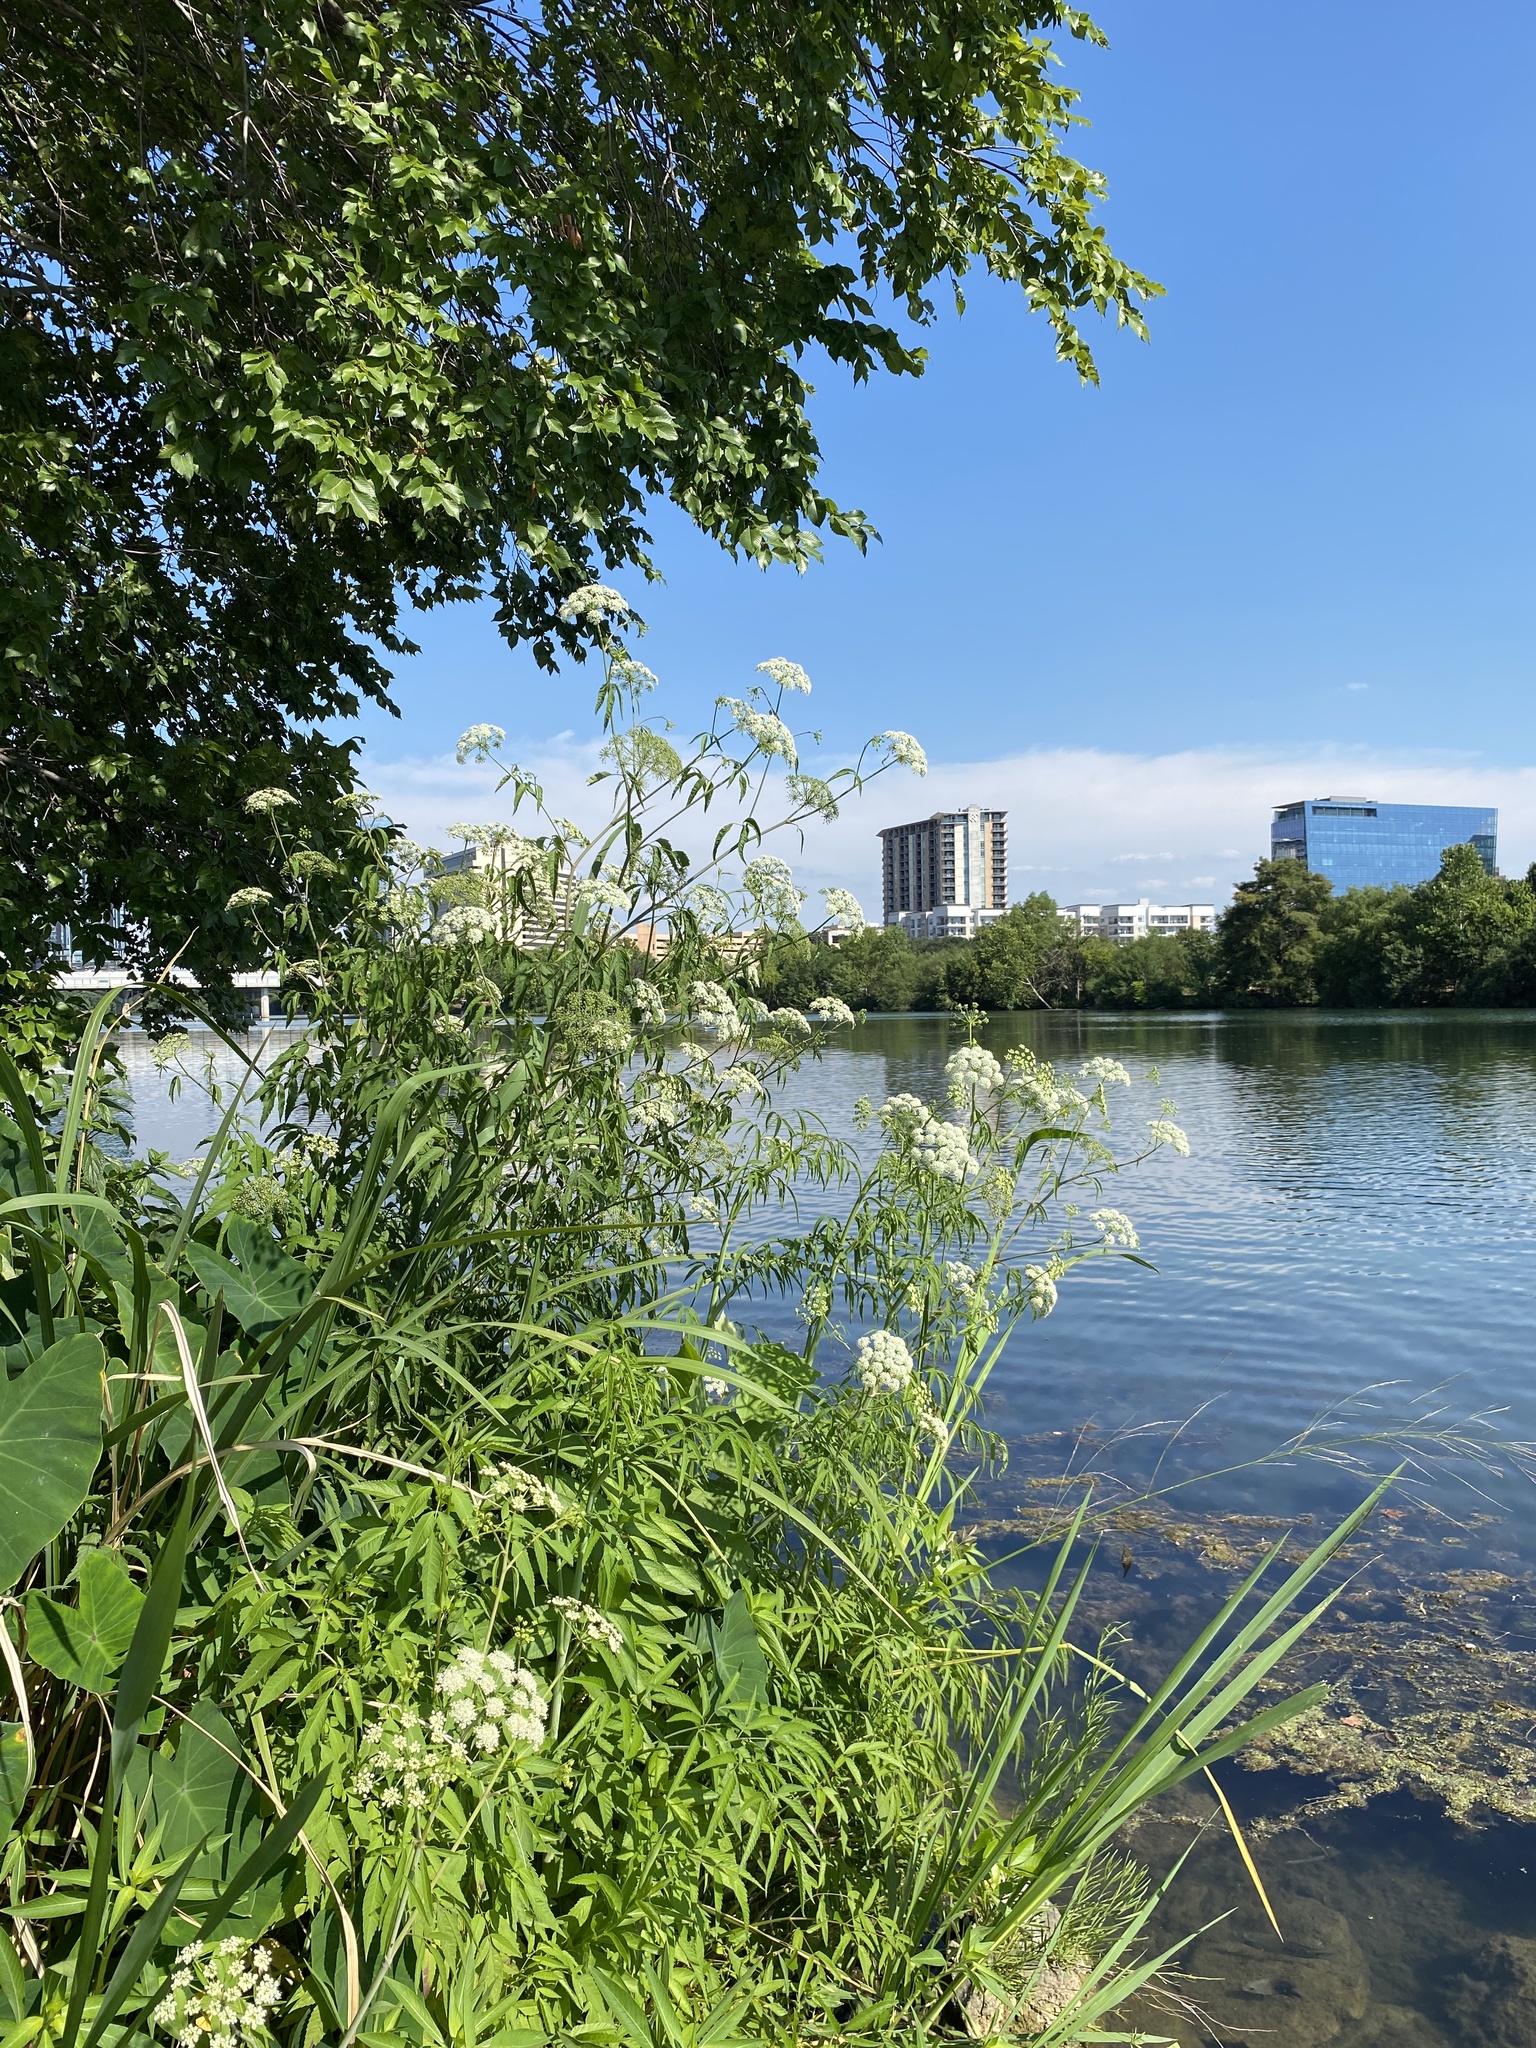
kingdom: Plantae
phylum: Tracheophyta
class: Magnoliopsida
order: Apiales
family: Apiaceae
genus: Cicuta
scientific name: Cicuta maculata
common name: Spotted cowbane
